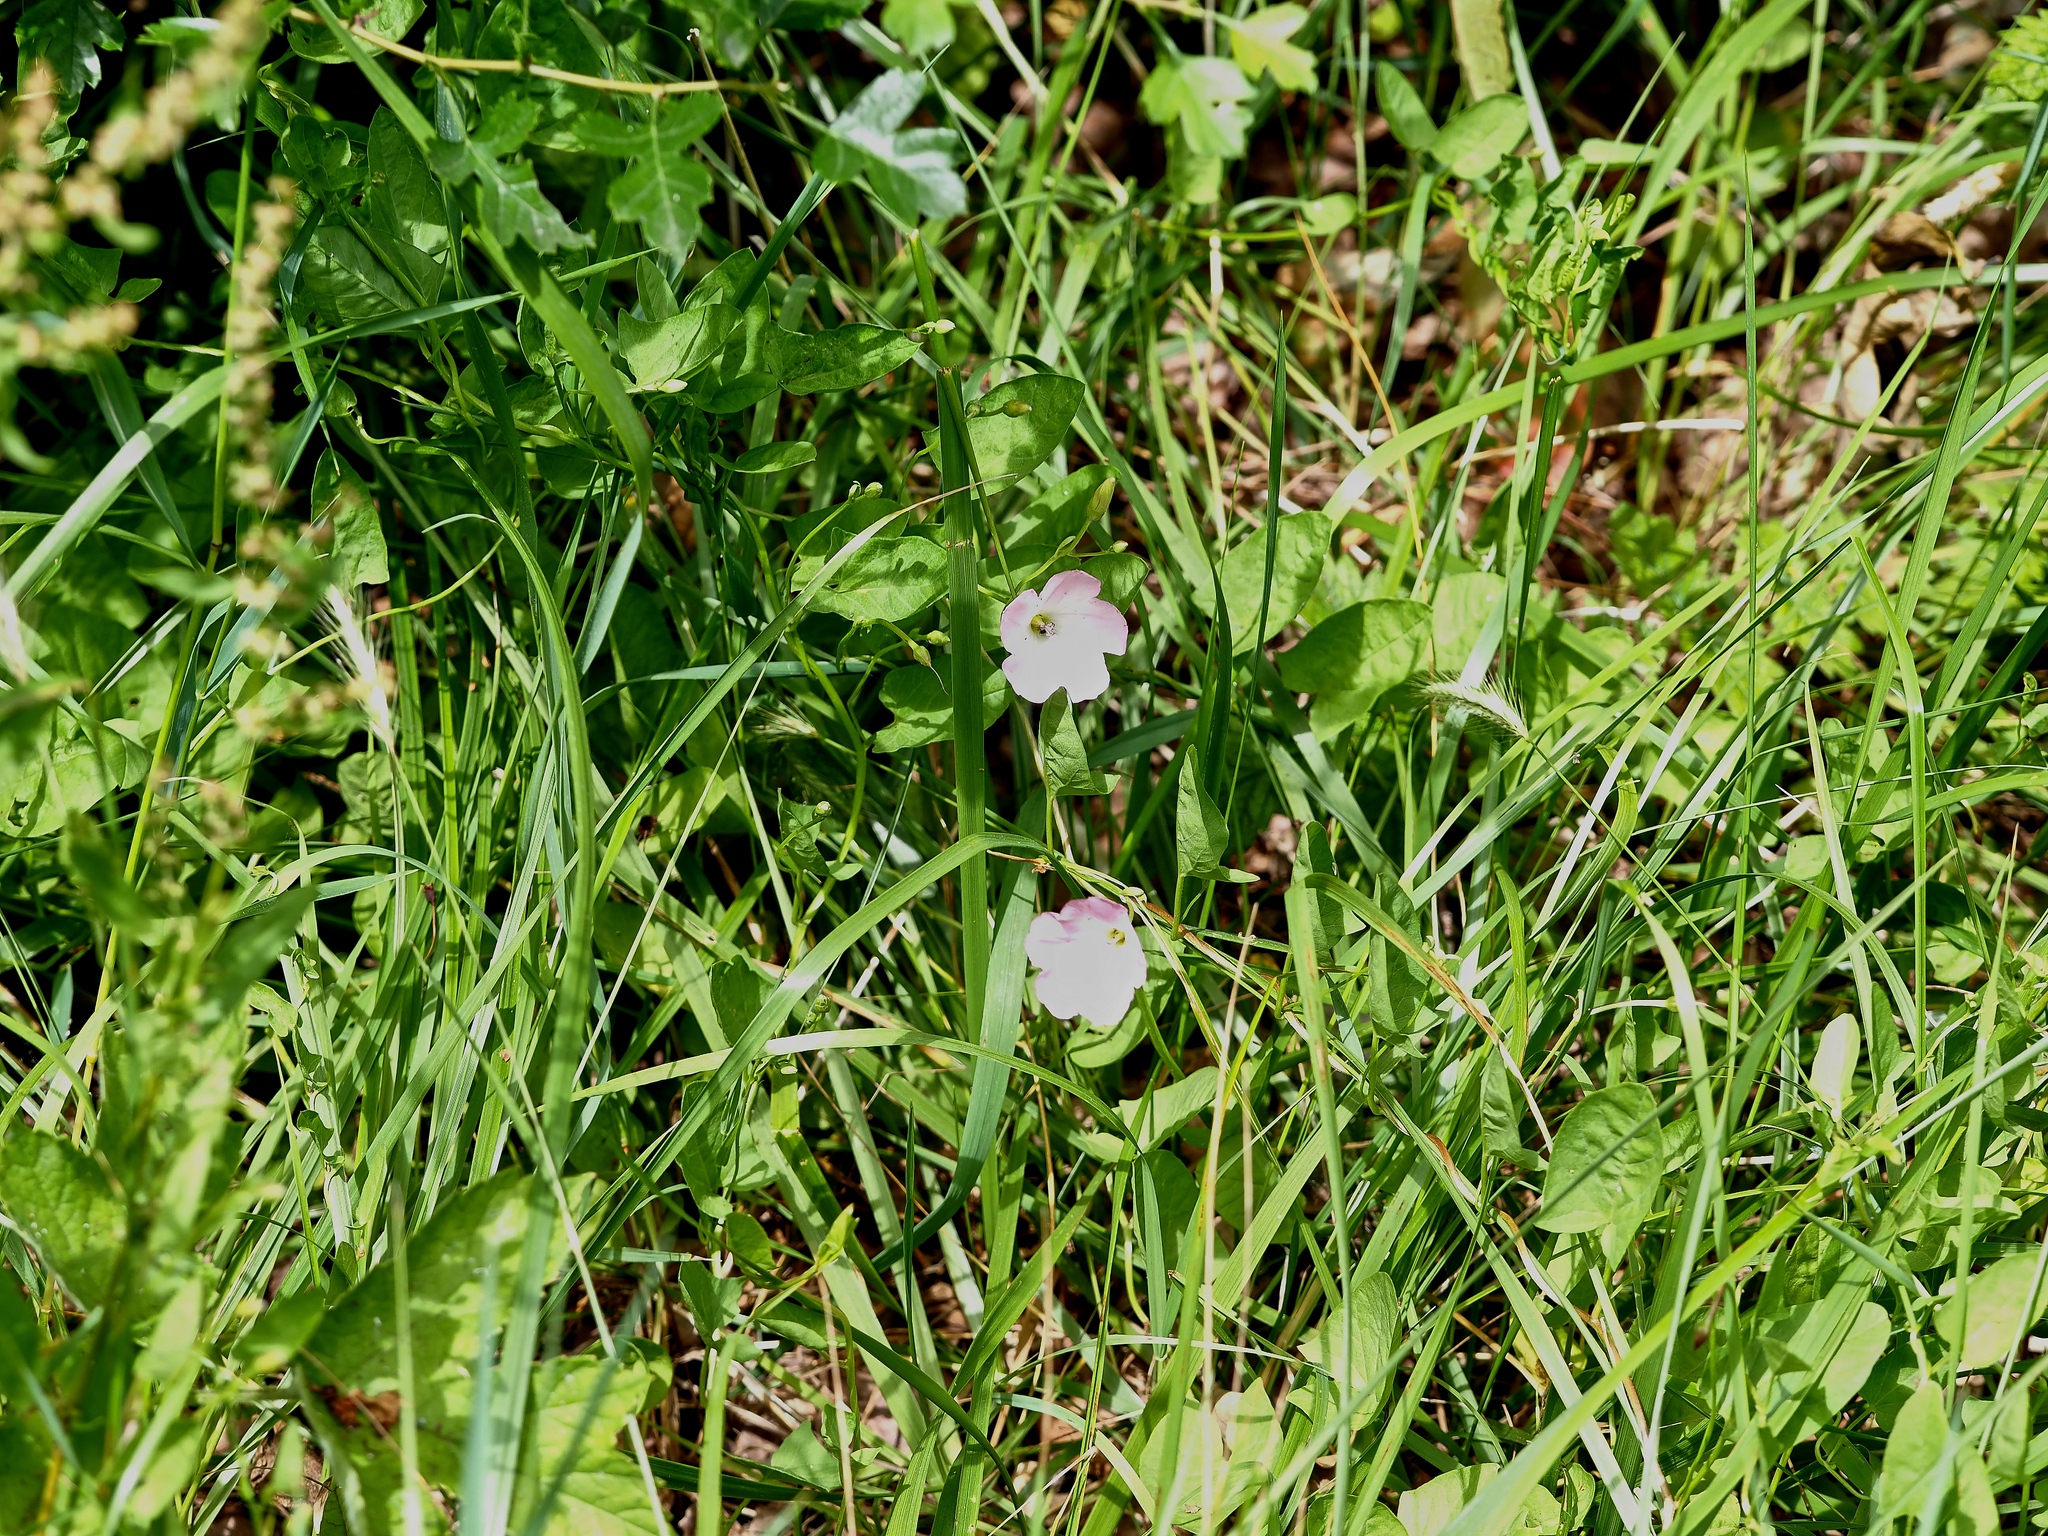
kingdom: Plantae
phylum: Tracheophyta
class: Magnoliopsida
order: Solanales
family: Convolvulaceae
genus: Convolvulus
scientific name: Convolvulus arvensis
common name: Field bindweed
